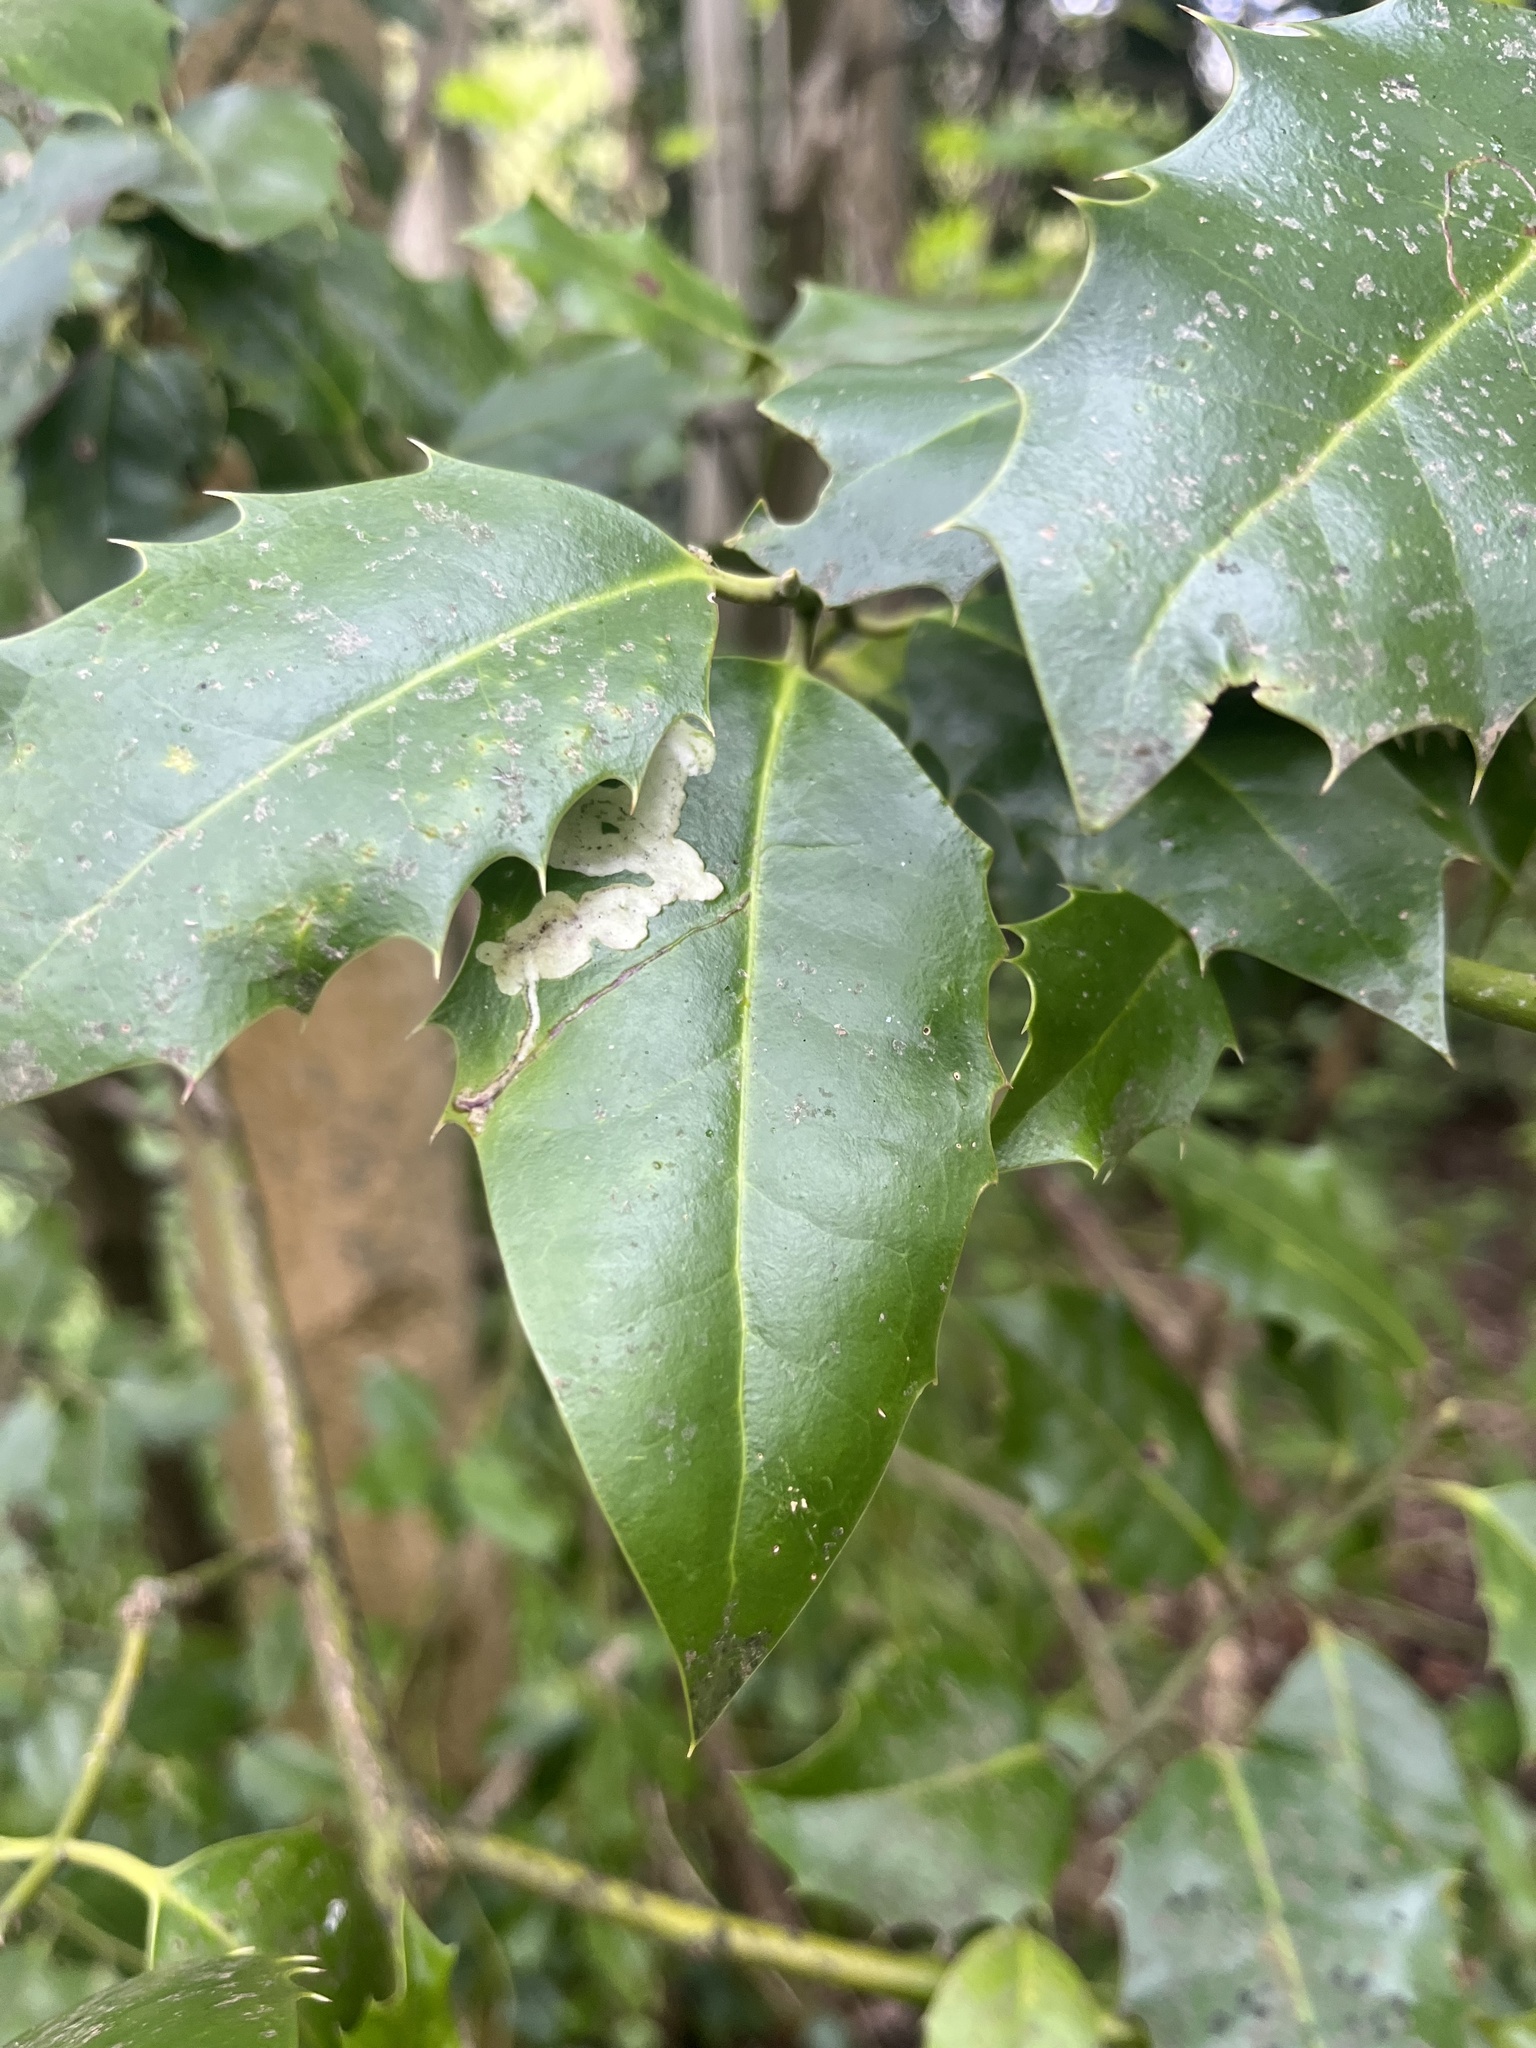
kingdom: Animalia
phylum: Arthropoda
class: Insecta
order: Diptera
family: Agromyzidae
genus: Phytomyza
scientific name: Phytomyza ilicis
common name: Holly leafminer
